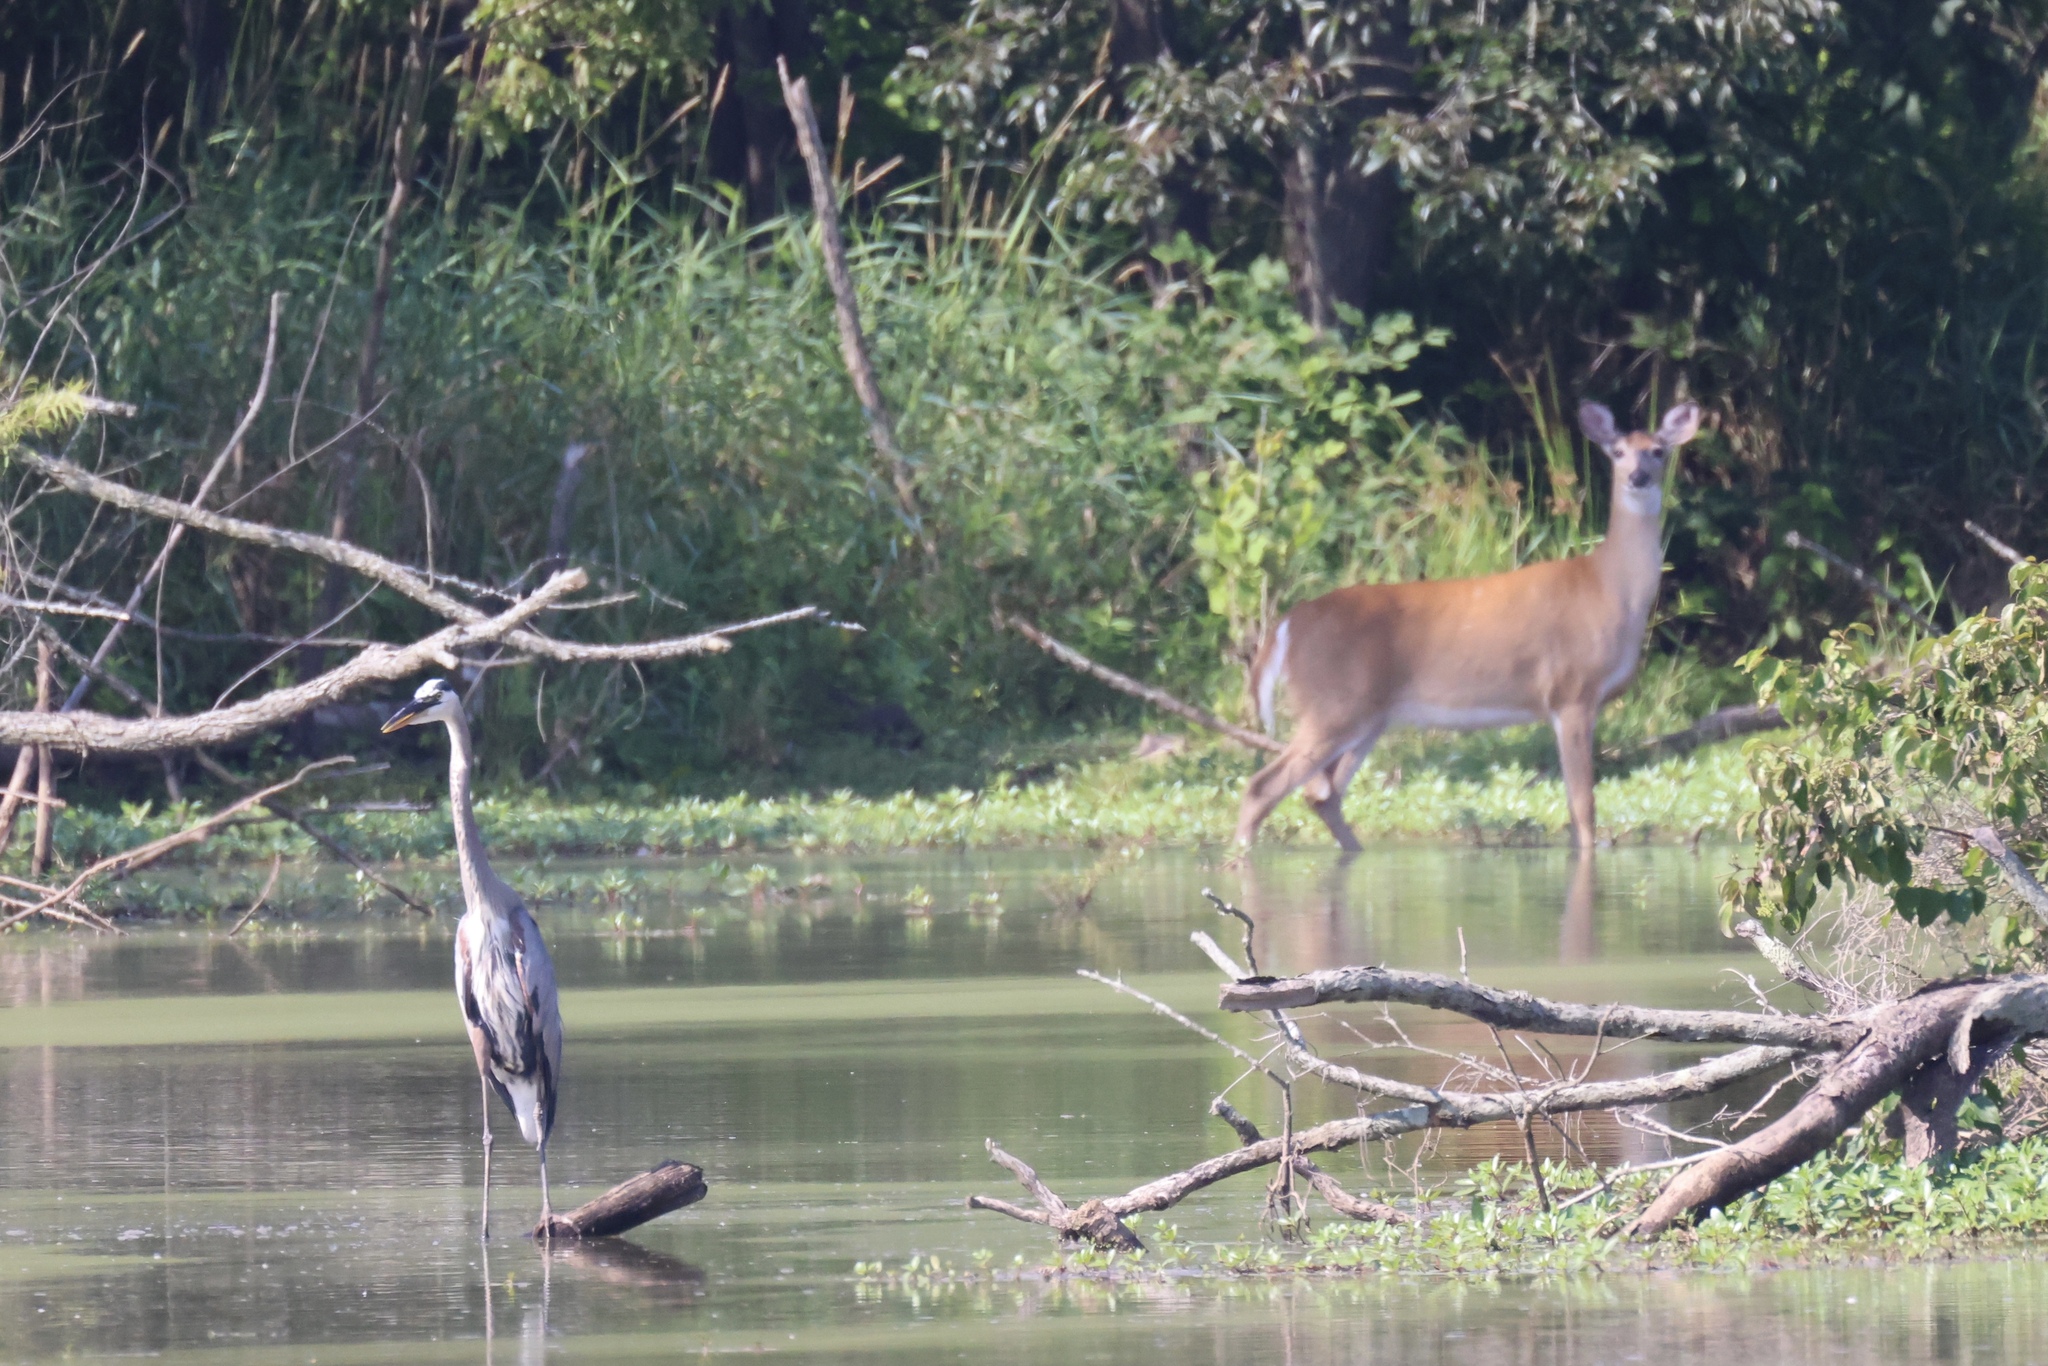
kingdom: Animalia
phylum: Chordata
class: Aves
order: Pelecaniformes
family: Ardeidae
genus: Ardea
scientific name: Ardea herodias
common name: Great blue heron
